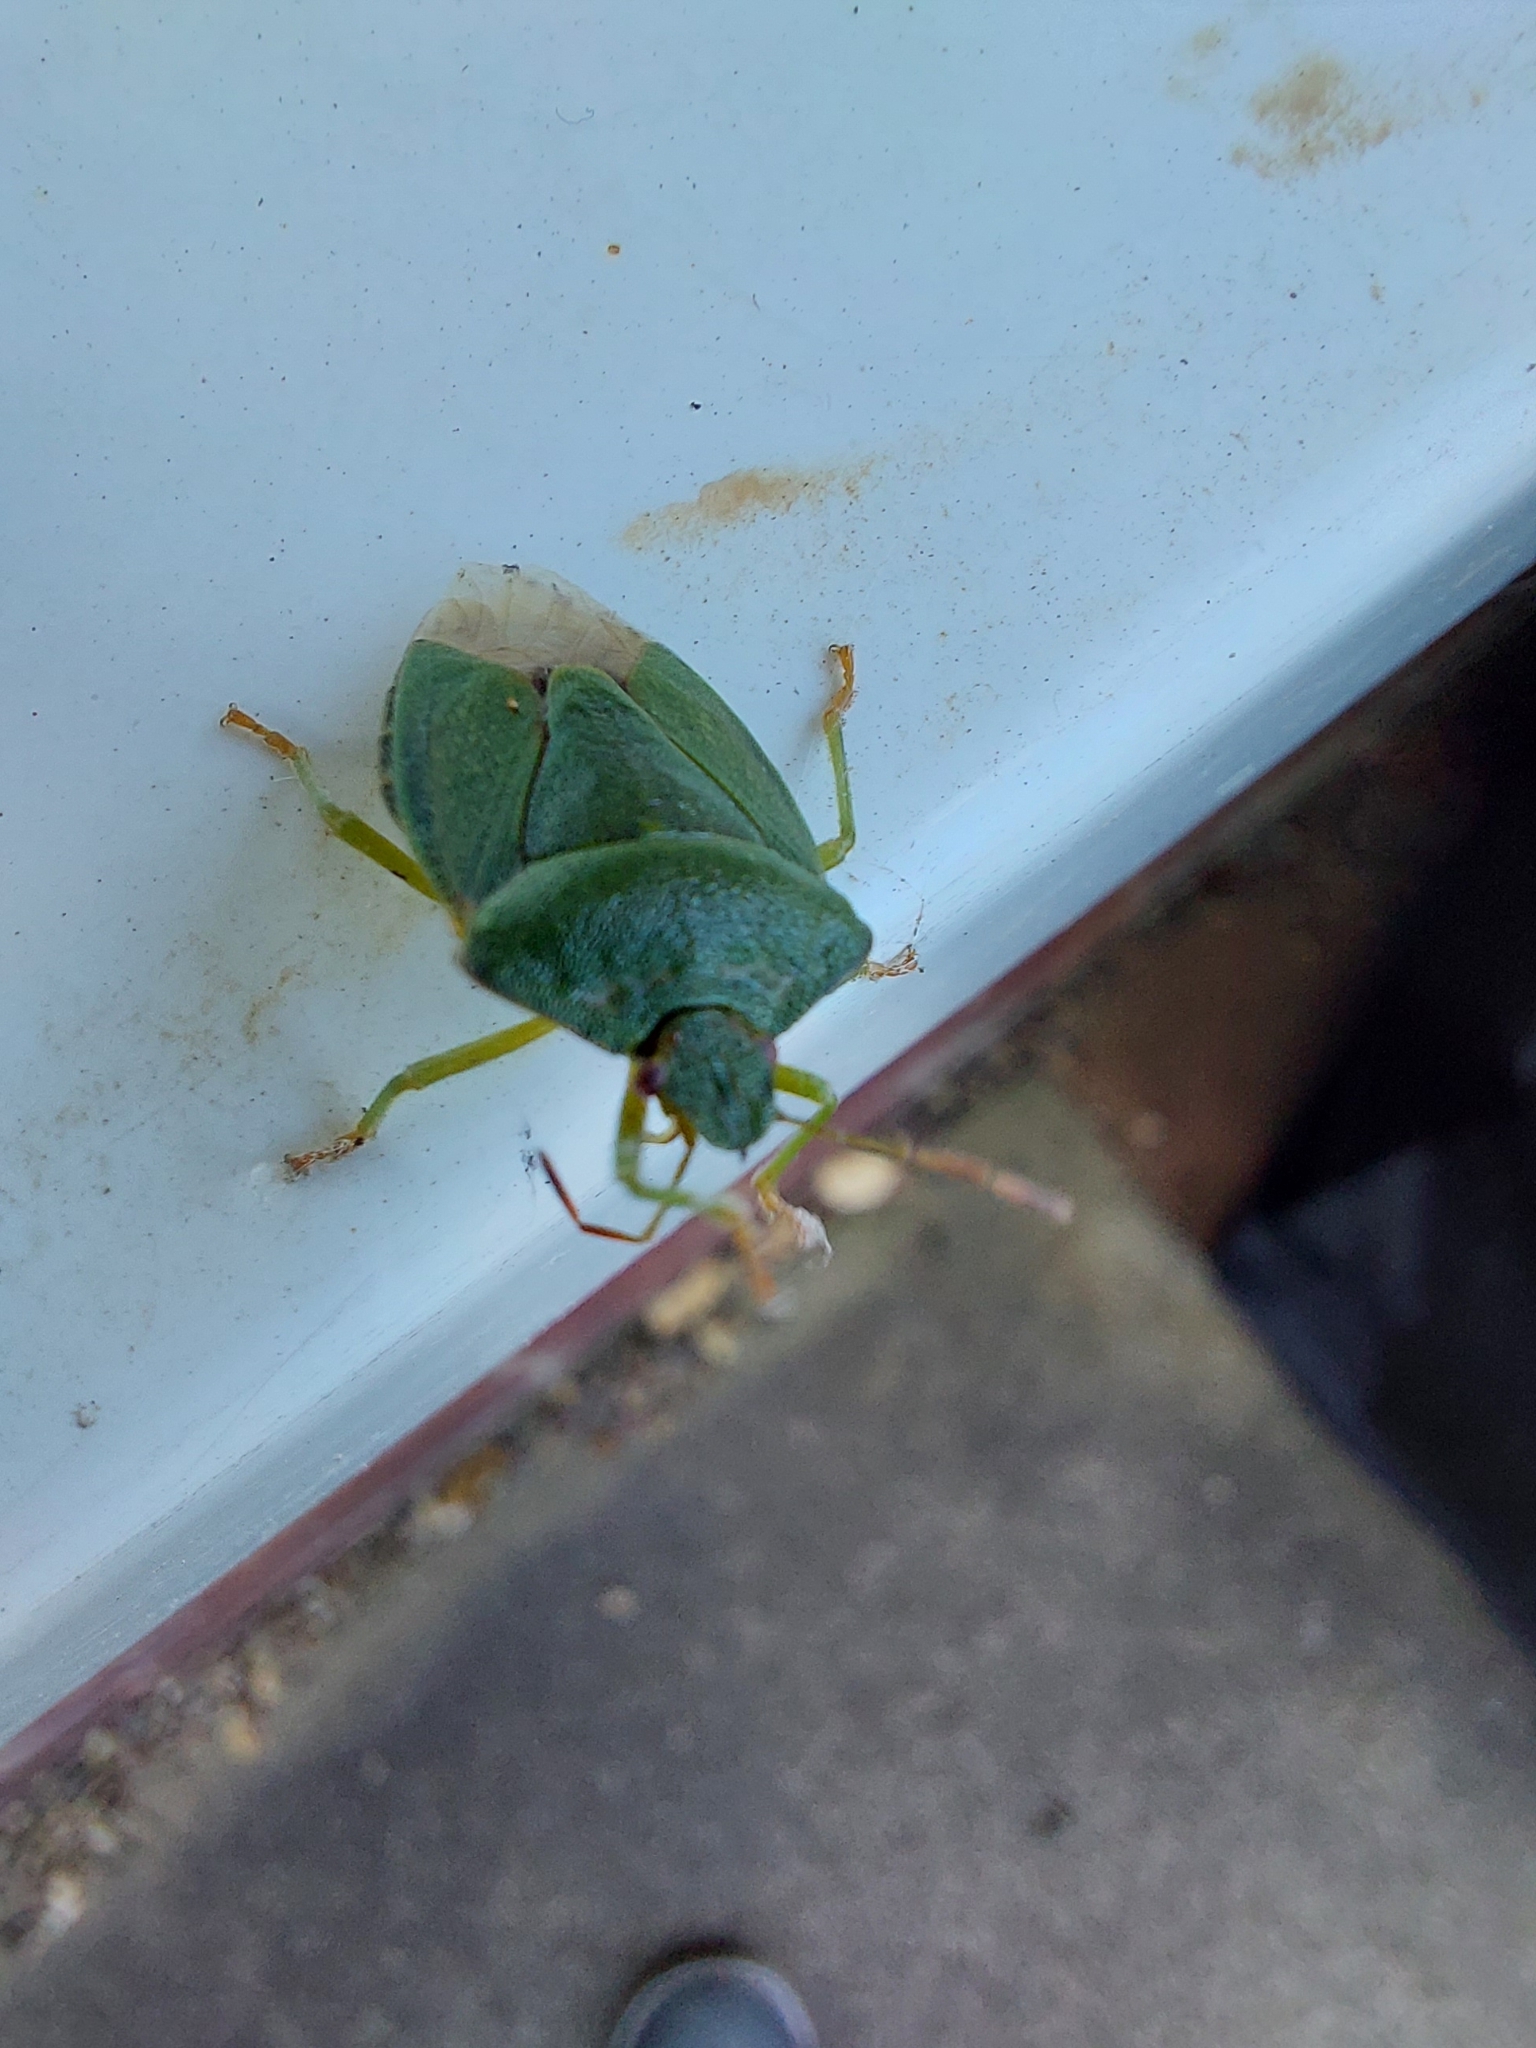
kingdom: Animalia
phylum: Arthropoda
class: Insecta
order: Hemiptera
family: Pentatomidae
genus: Palomena
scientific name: Palomena prasina
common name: Green shieldbug
